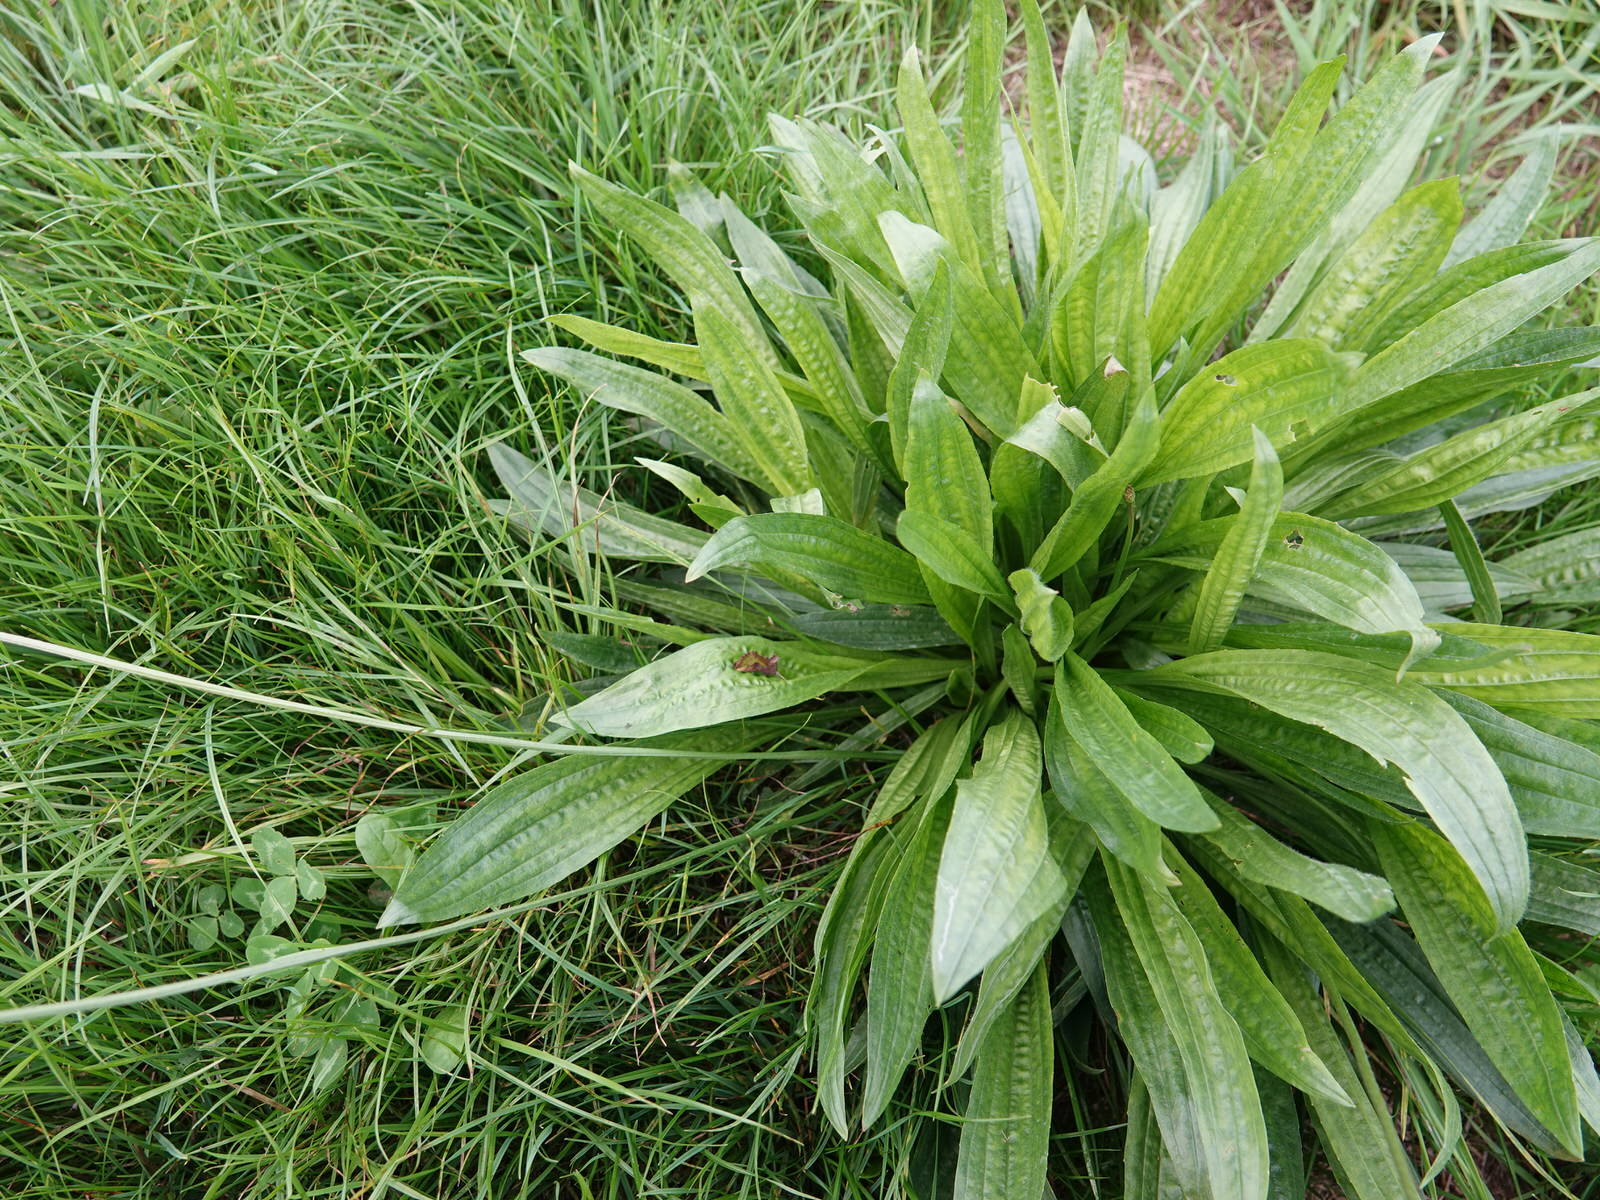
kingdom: Animalia
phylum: Arthropoda
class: Insecta
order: Lepidoptera
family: Noctuidae
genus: Thysanoplusia
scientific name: Thysanoplusia orichalcea
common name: Slender burnished brass, golden plusia
